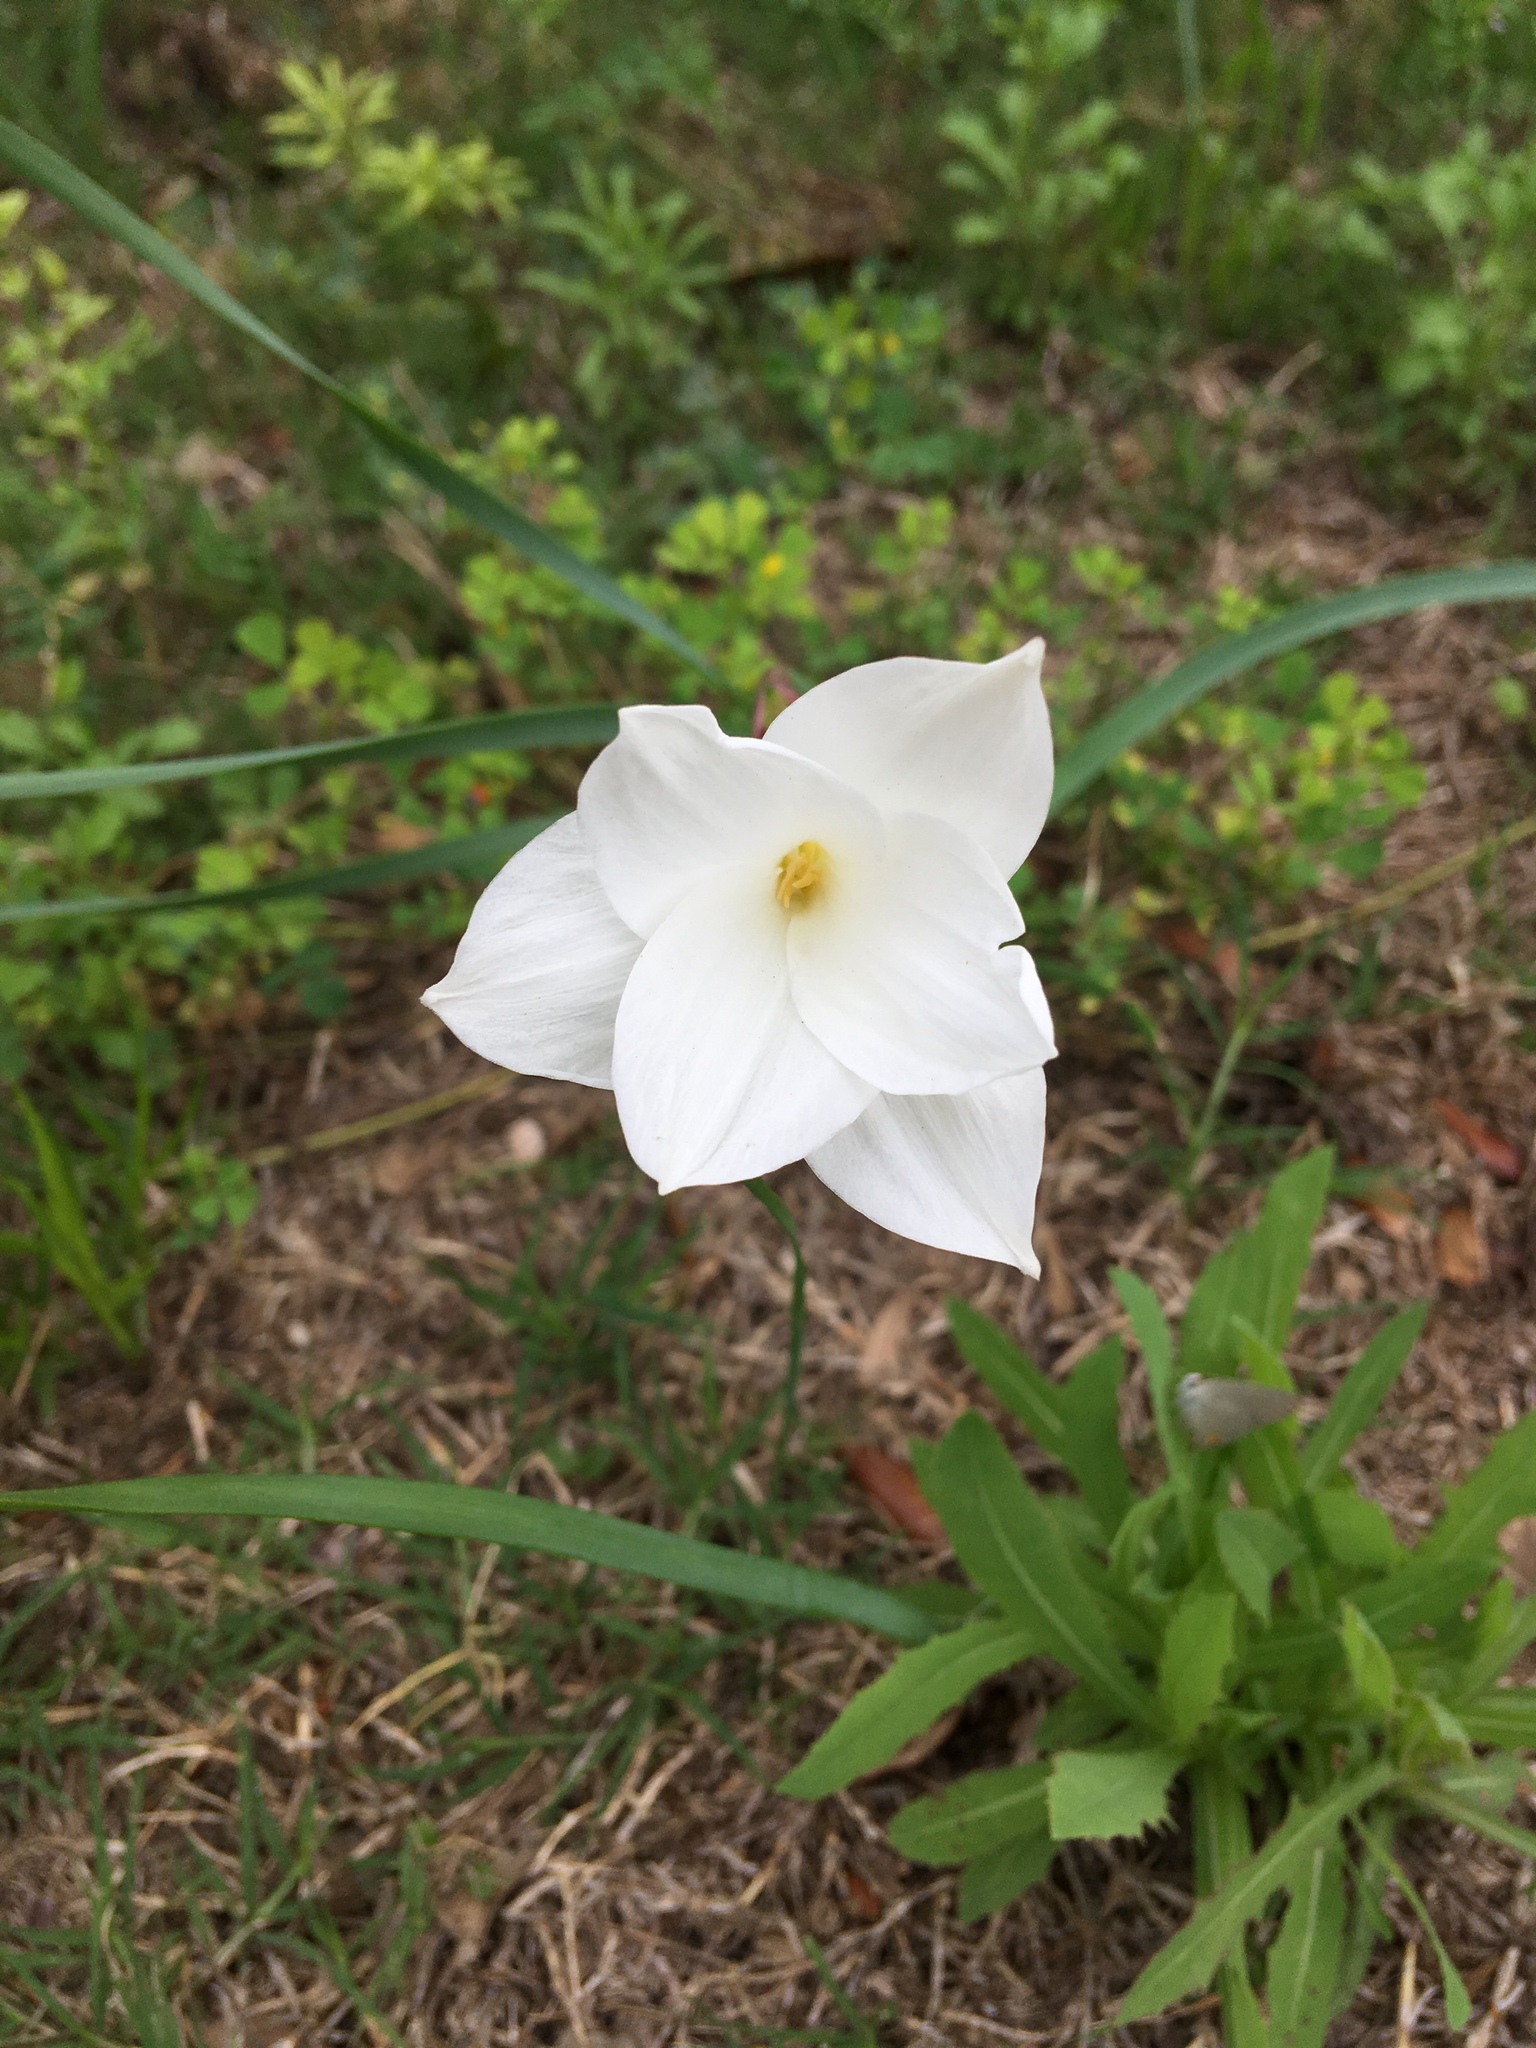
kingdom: Plantae
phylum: Tracheophyta
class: Liliopsida
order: Asparagales
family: Amaryllidaceae
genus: Zephyranthes
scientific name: Zephyranthes drummondii
